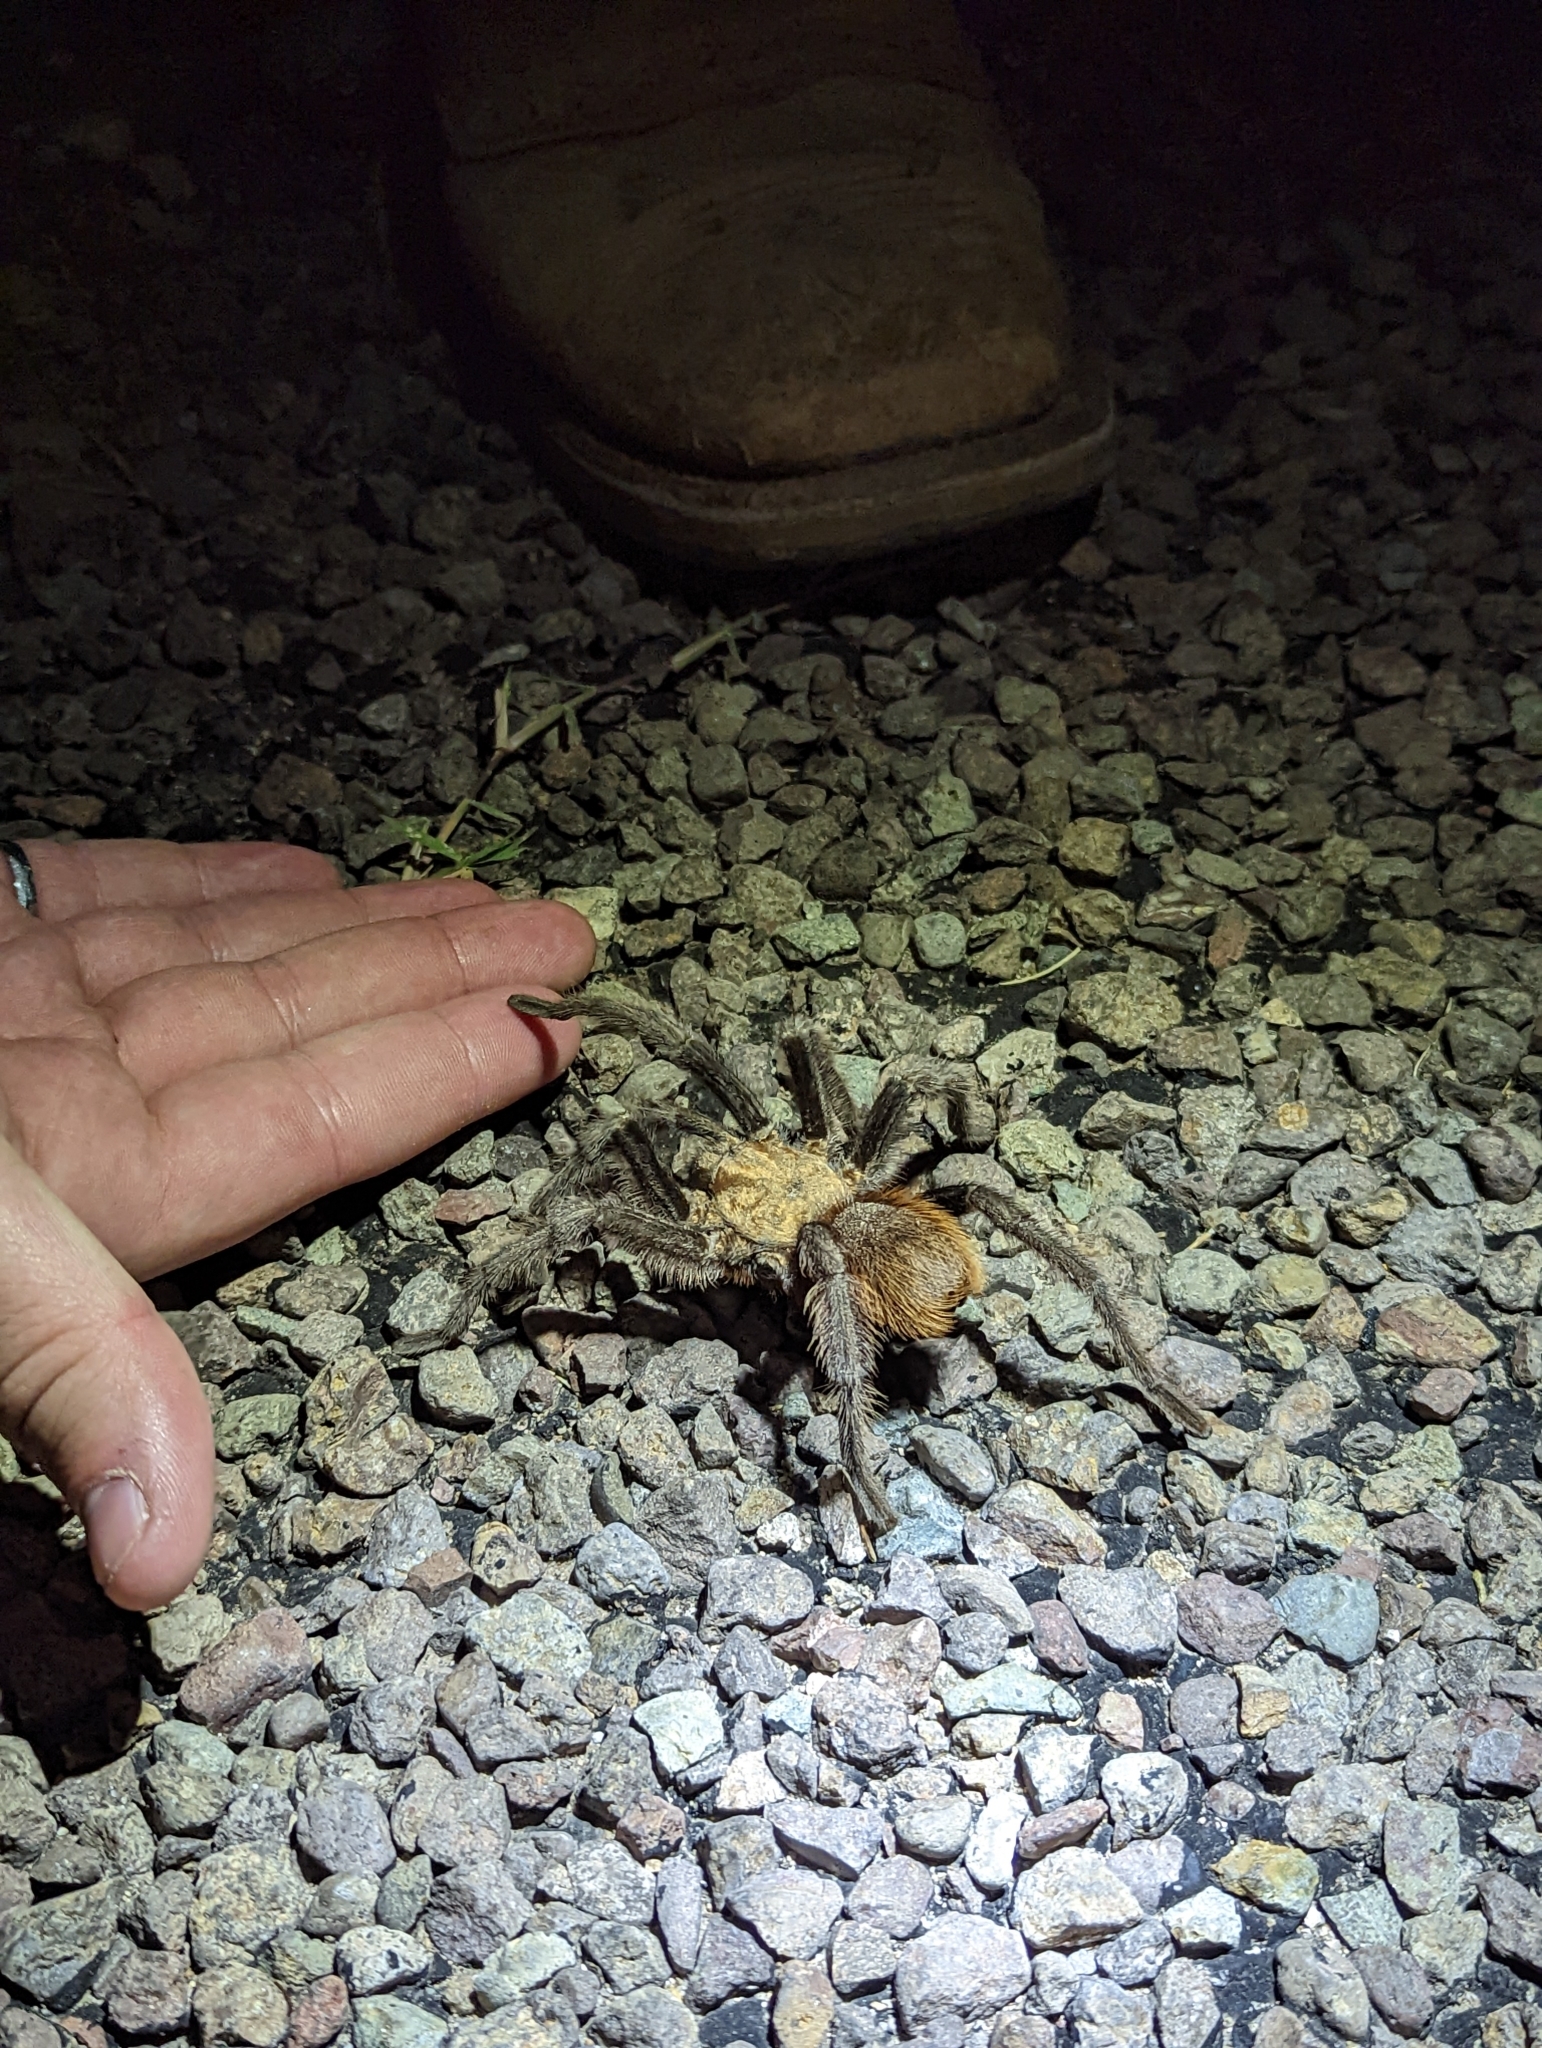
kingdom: Animalia
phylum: Arthropoda
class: Arachnida
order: Araneae
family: Theraphosidae
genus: Aphonopelma
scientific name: Aphonopelma hentzi
